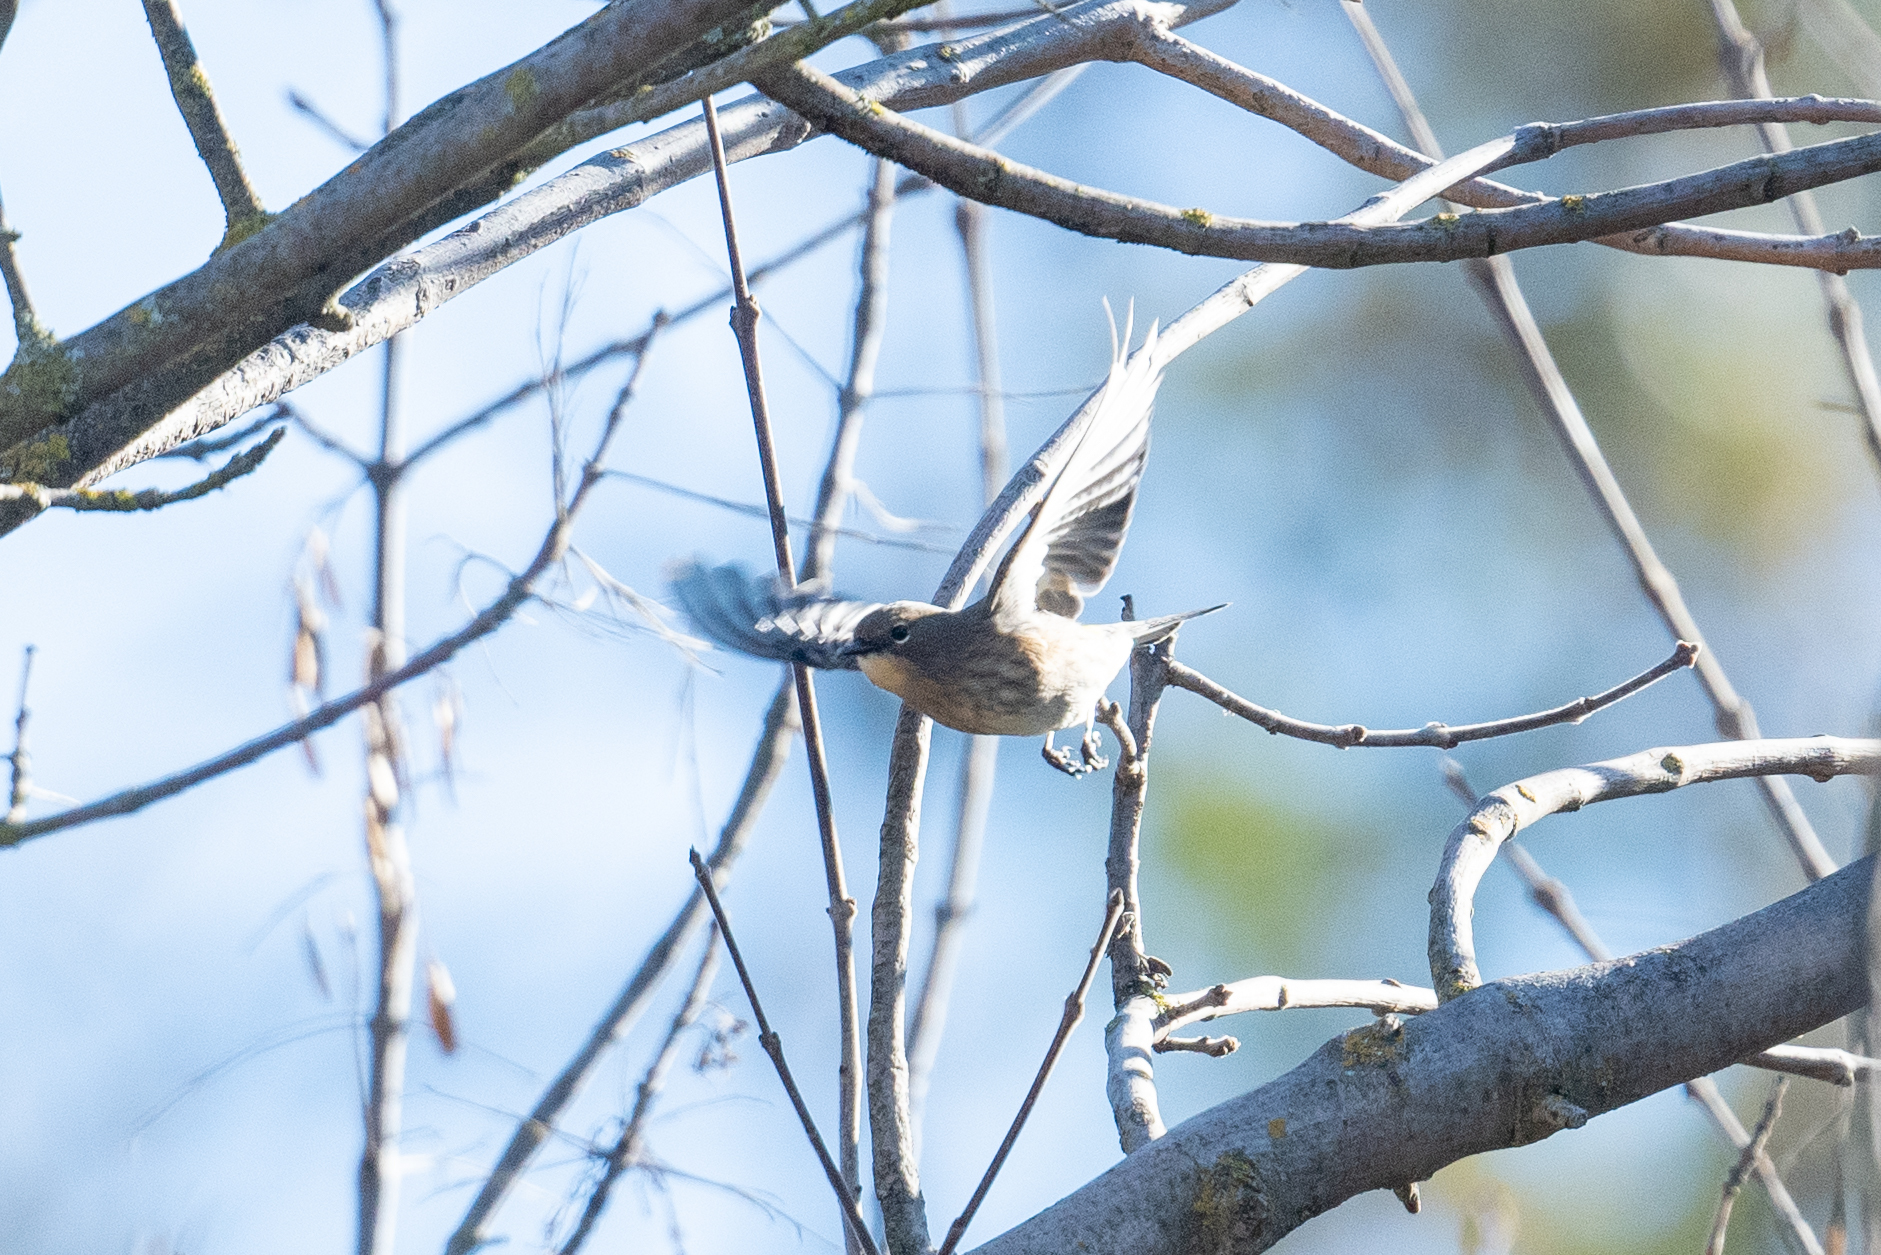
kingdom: Animalia
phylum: Chordata
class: Aves
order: Passeriformes
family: Parulidae
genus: Setophaga
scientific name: Setophaga coronata
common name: Myrtle warbler
